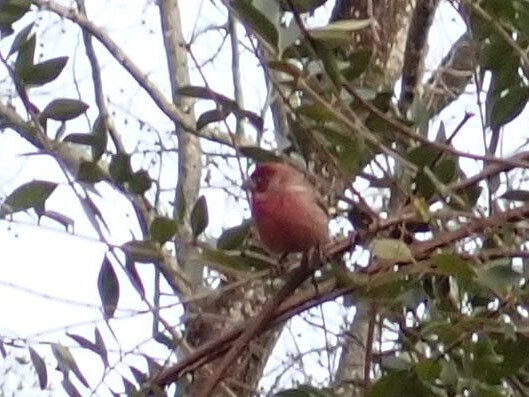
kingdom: Animalia
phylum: Chordata
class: Aves
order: Passeriformes
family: Fringillidae
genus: Haemorhous
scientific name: Haemorhous mexicanus
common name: House finch
